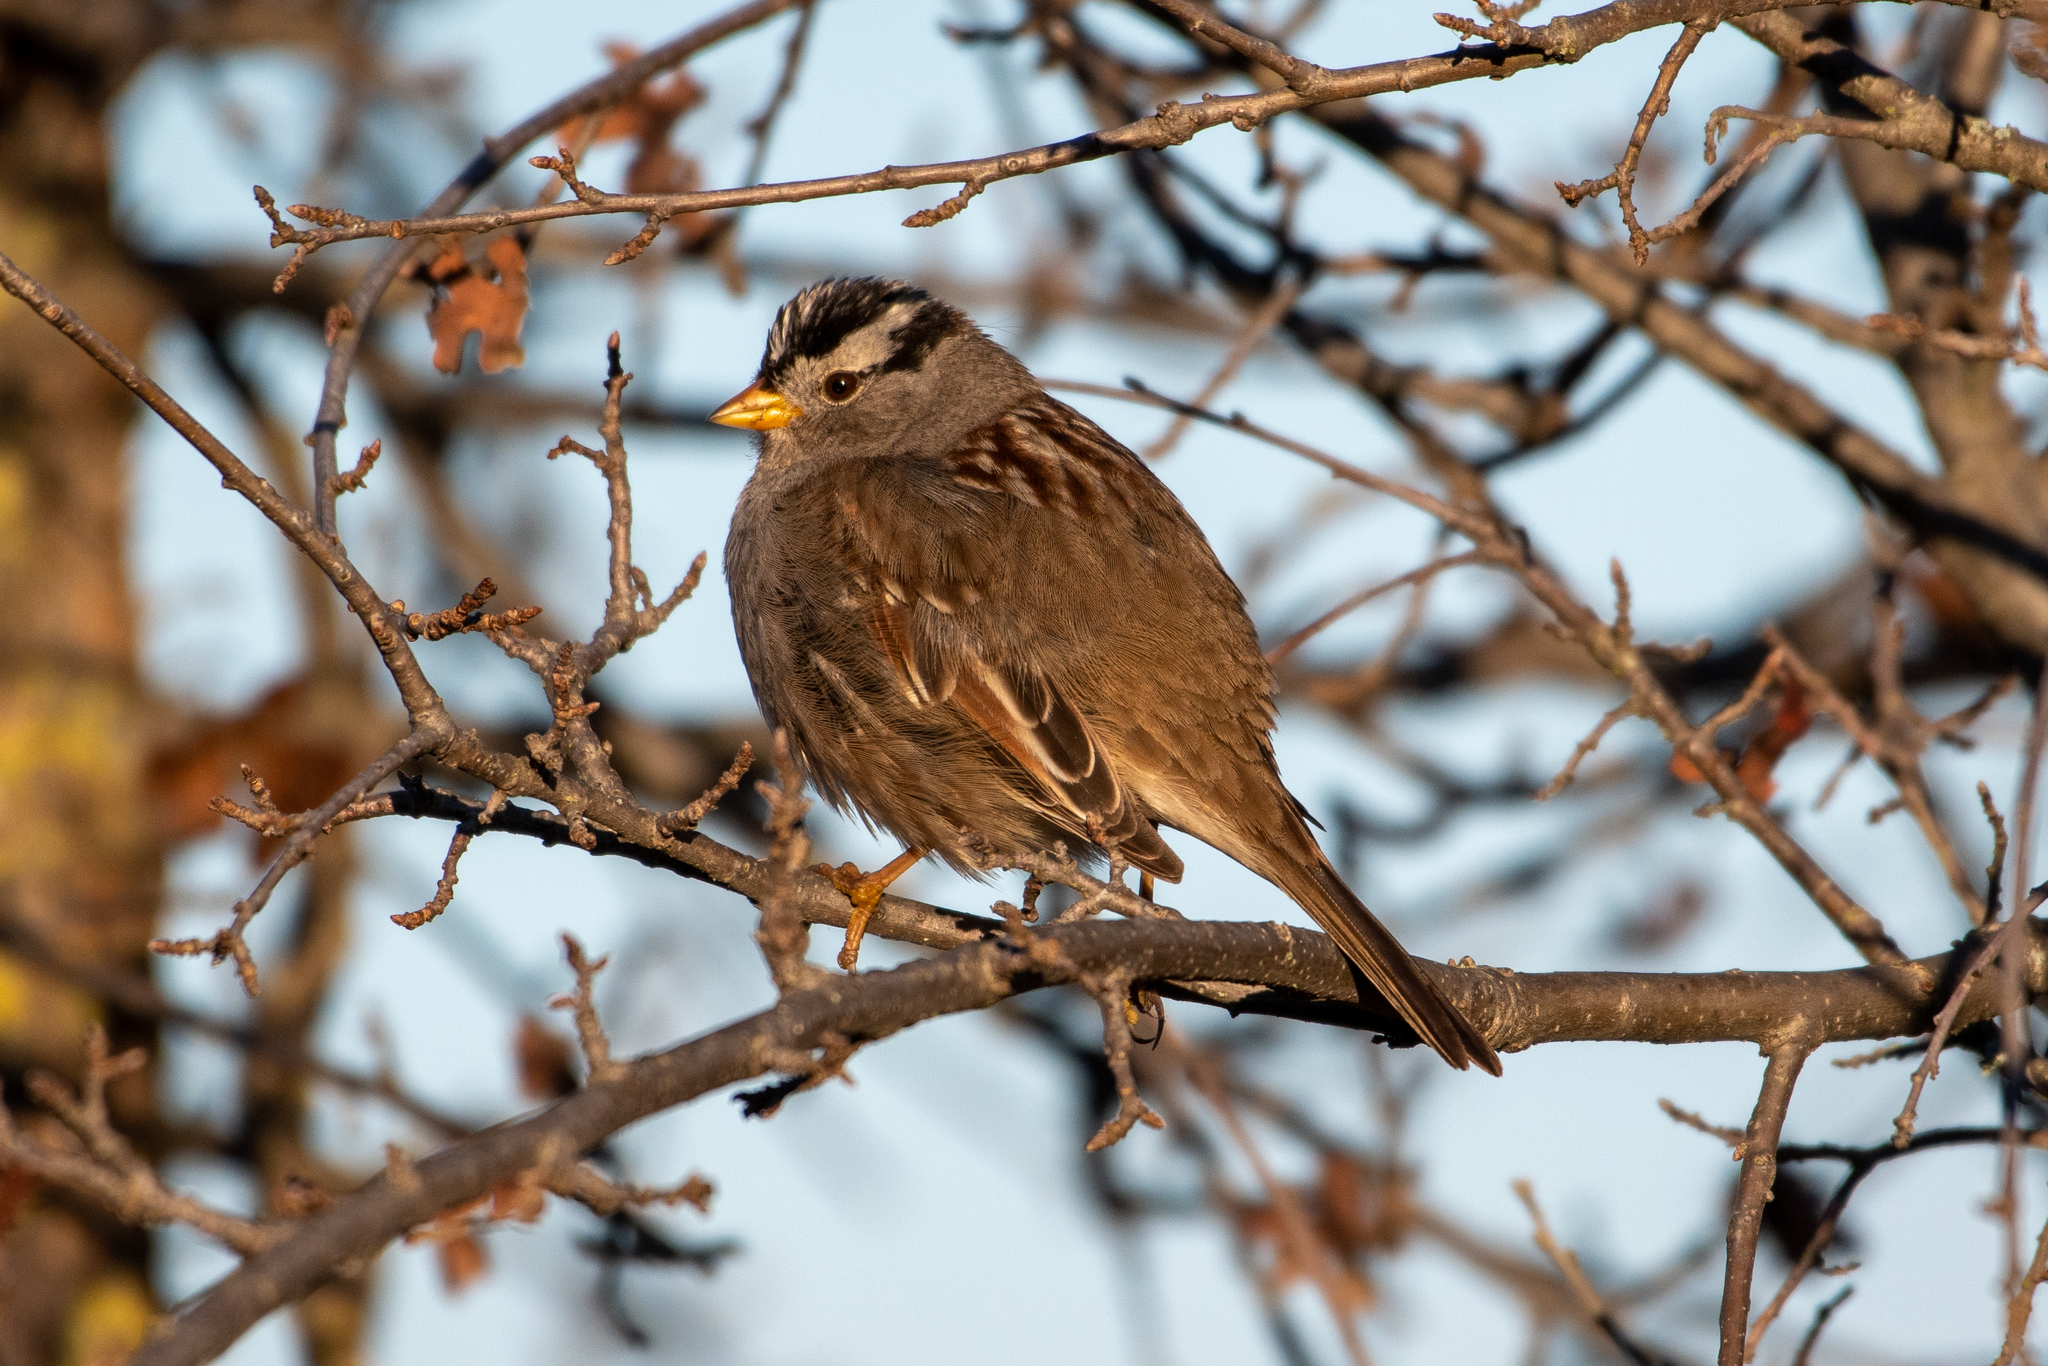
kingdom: Animalia
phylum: Chordata
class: Aves
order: Passeriformes
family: Passerellidae
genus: Zonotrichia
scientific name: Zonotrichia leucophrys
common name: White-crowned sparrow
